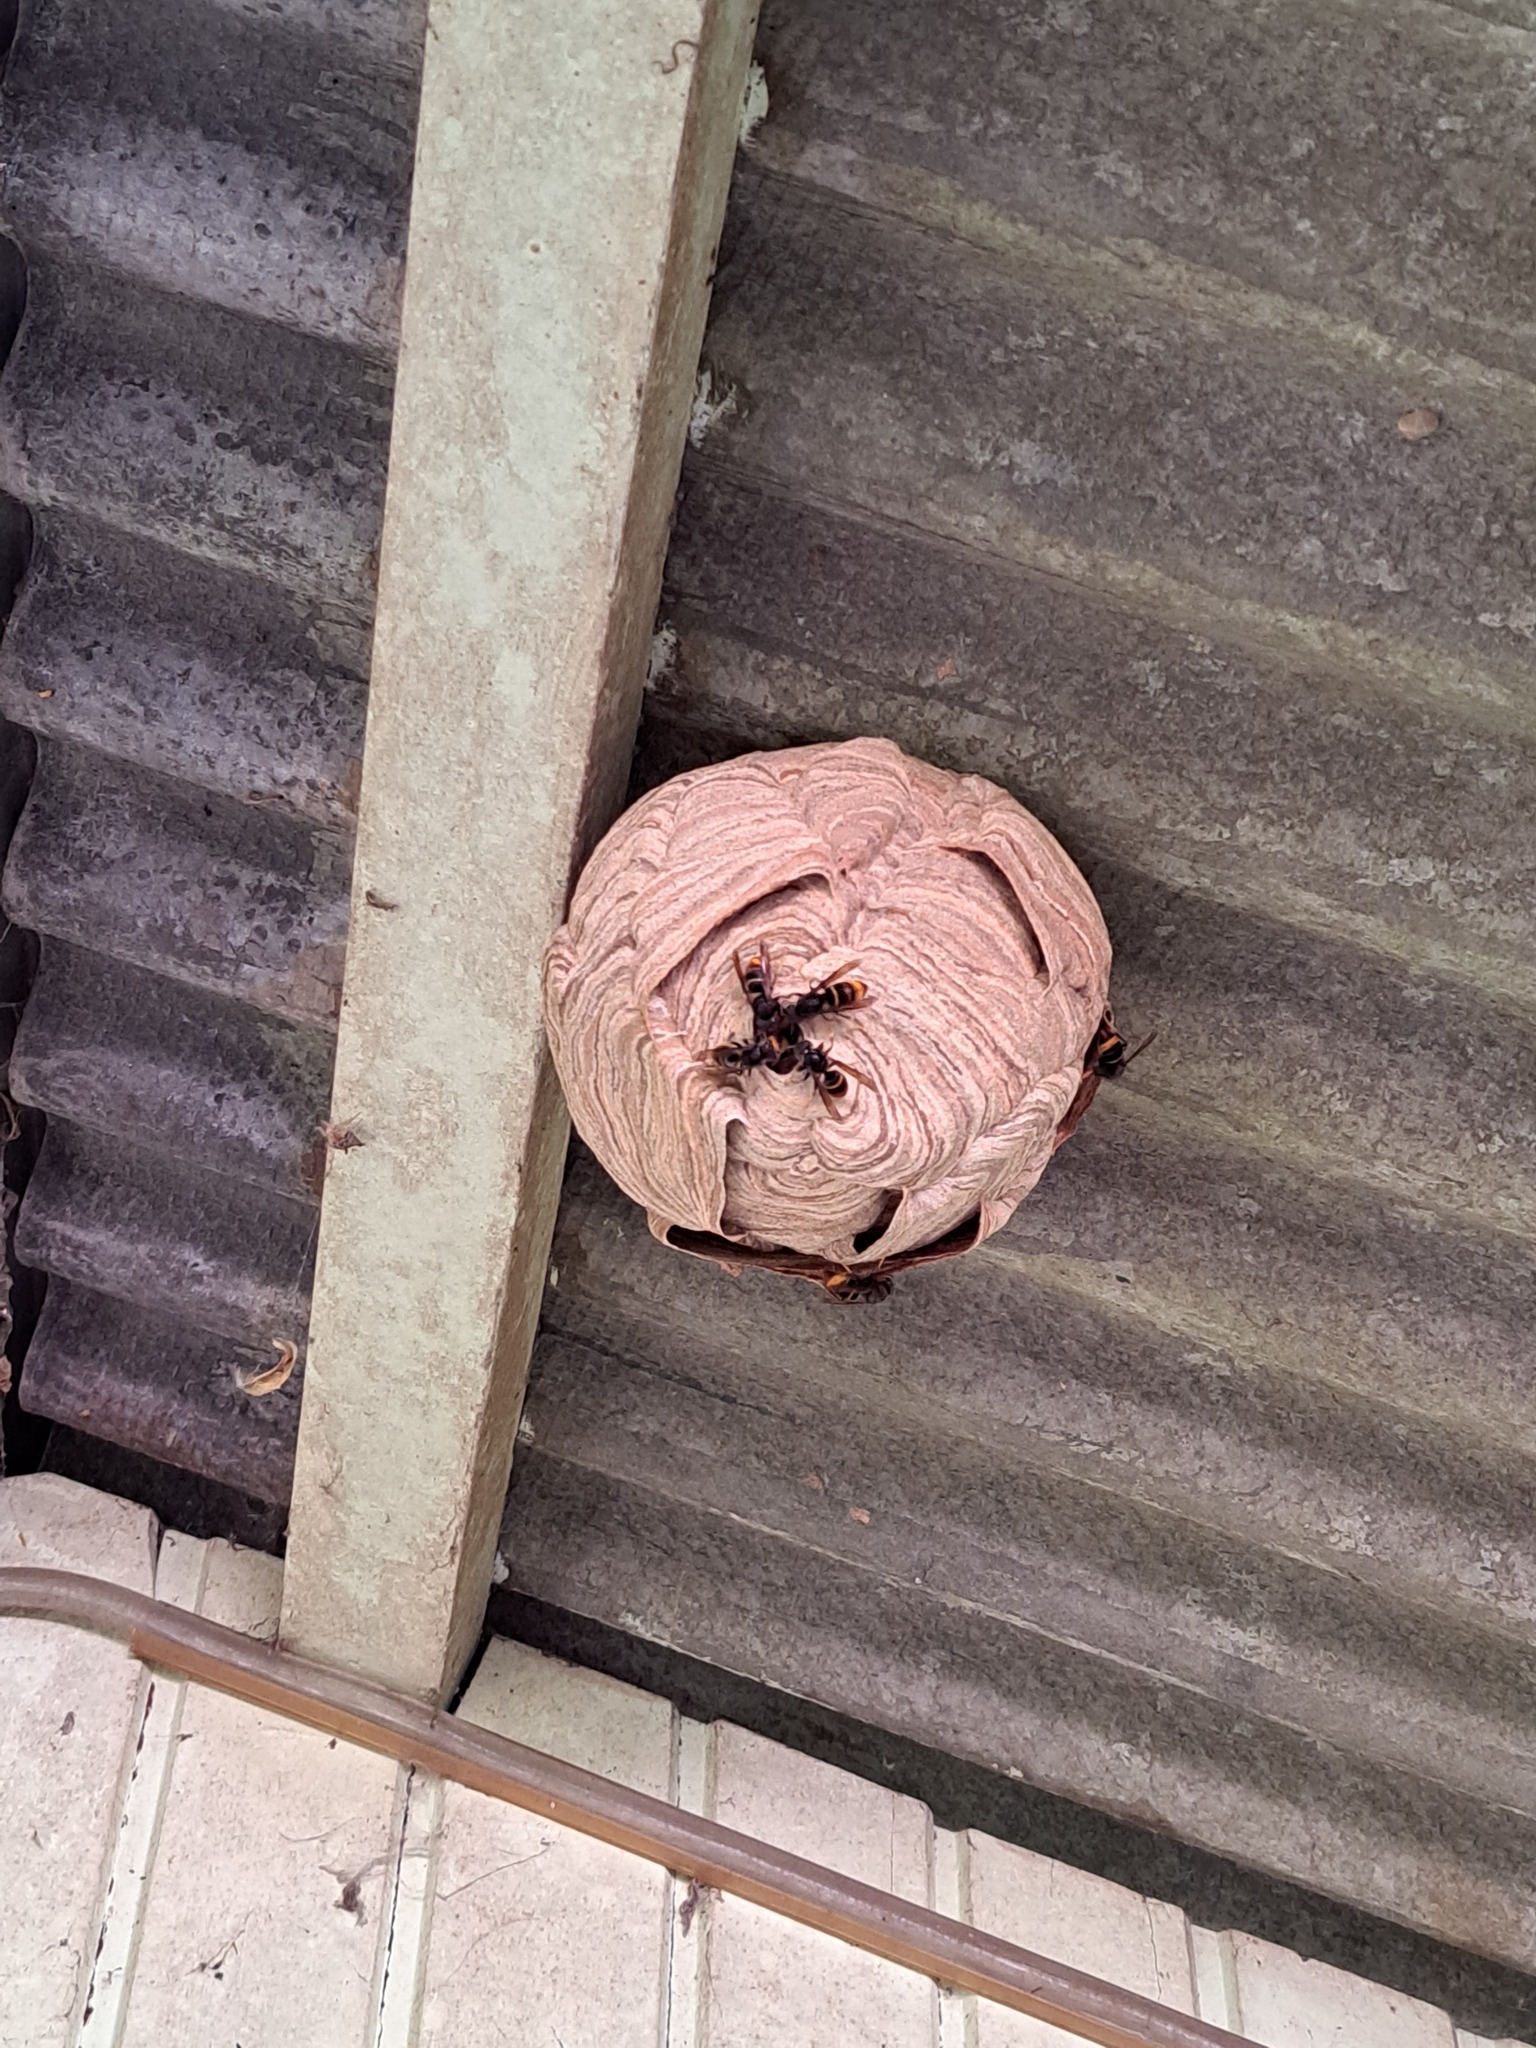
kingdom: Animalia
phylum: Arthropoda
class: Insecta
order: Hymenoptera
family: Vespidae
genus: Vespa
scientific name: Vespa velutina
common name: Asian hornet
